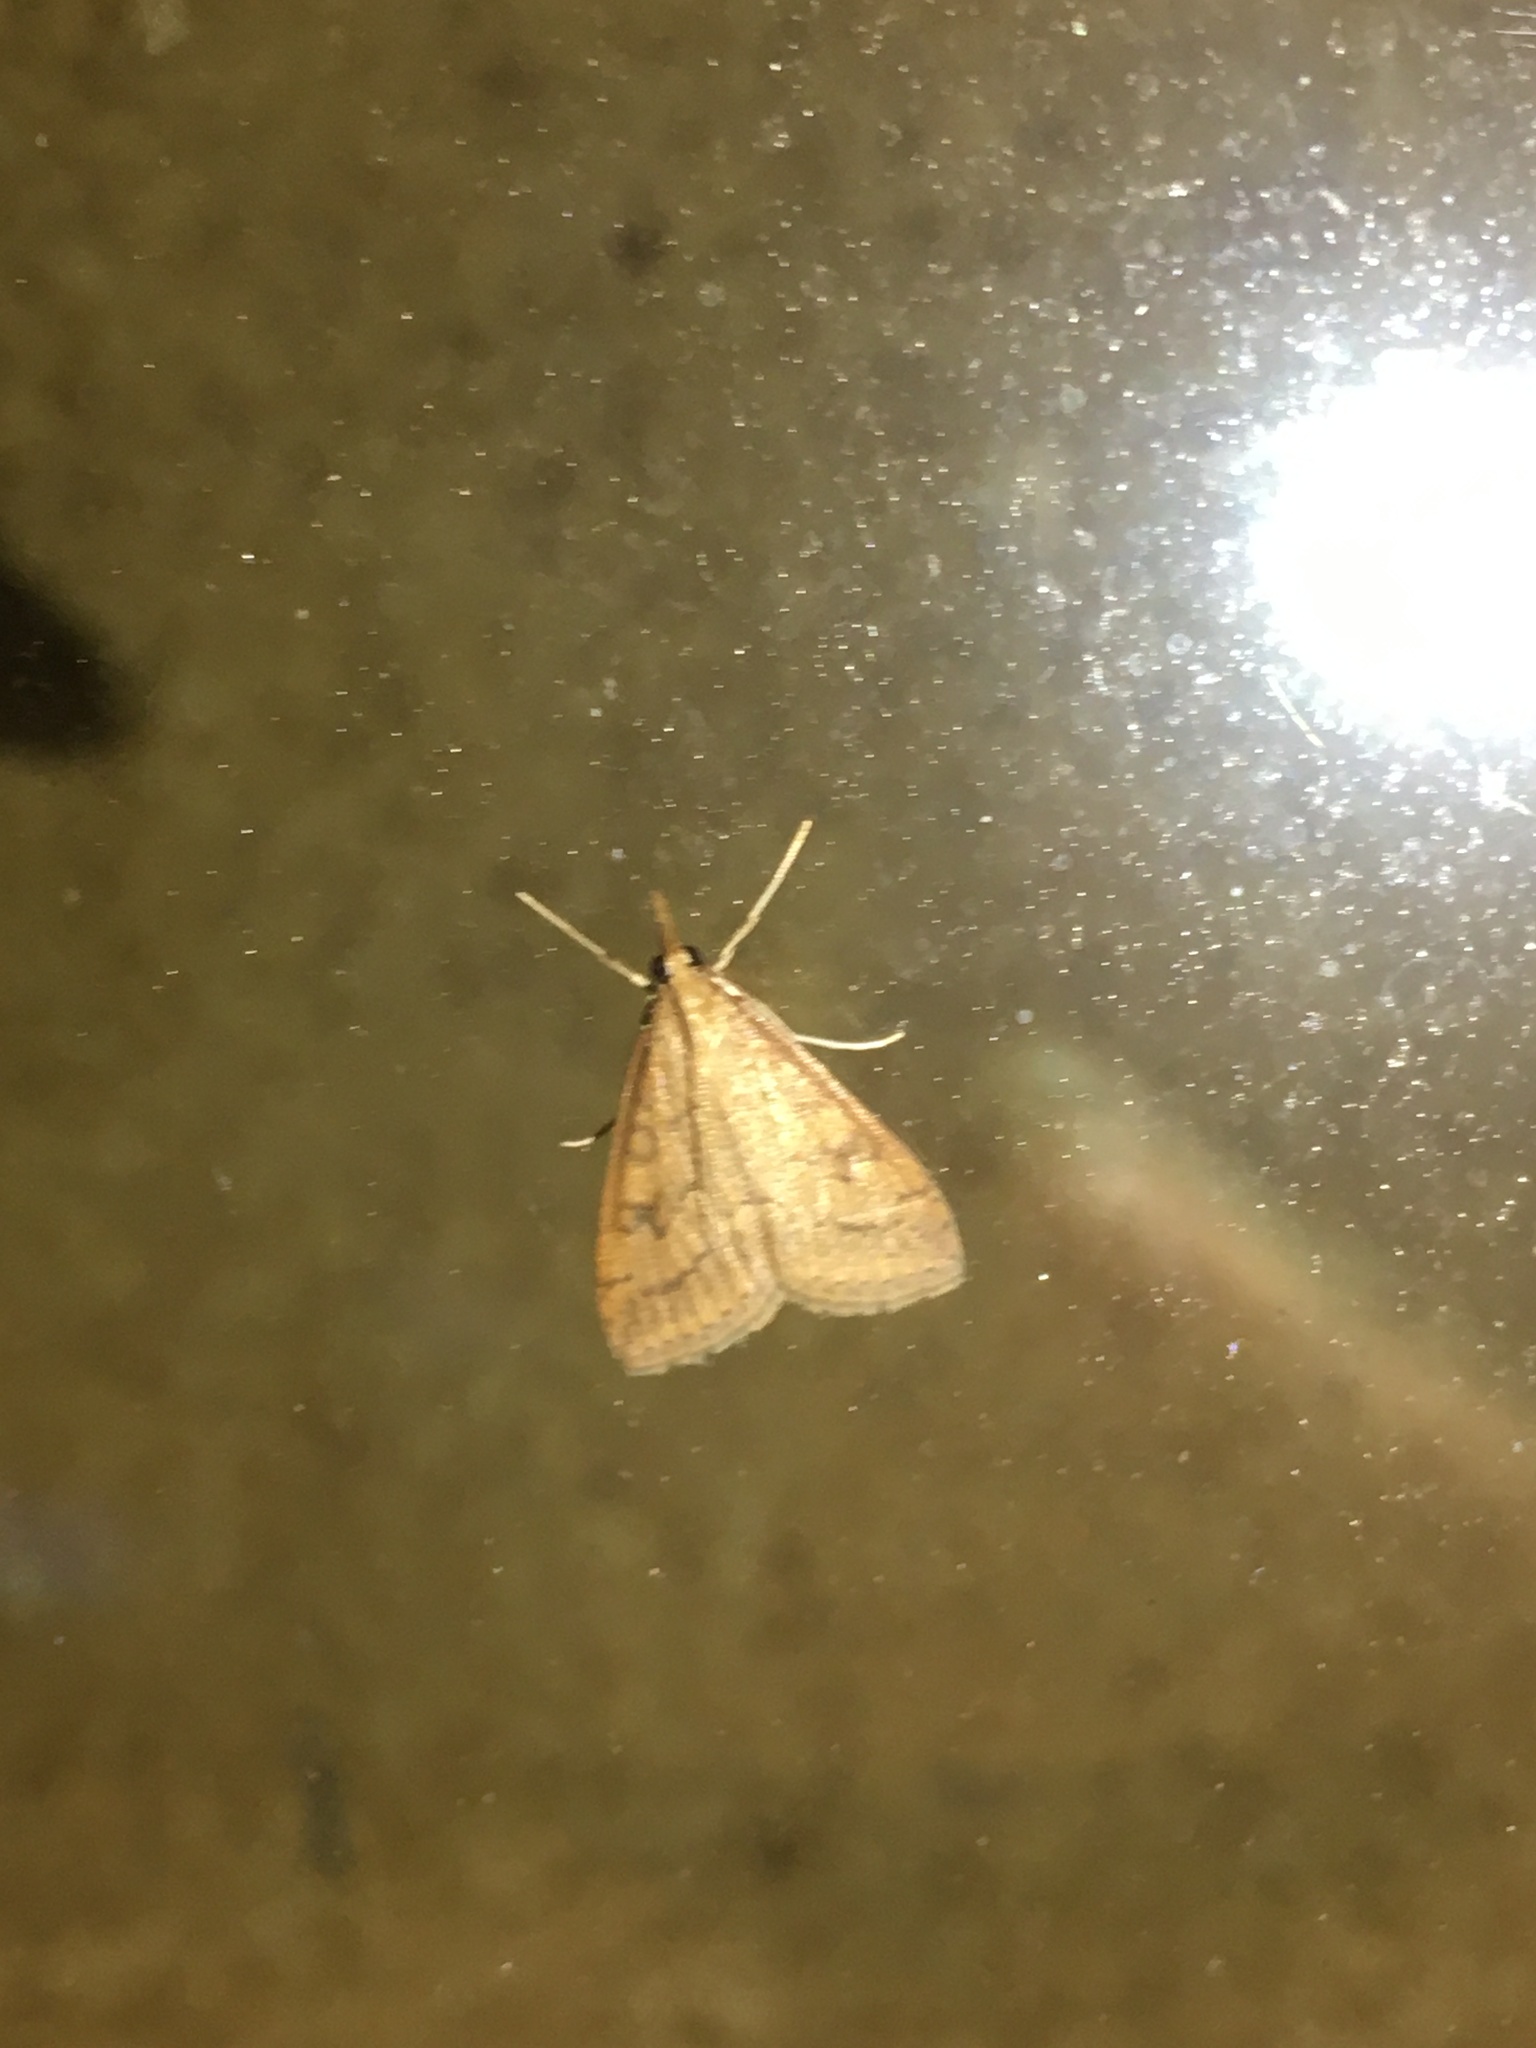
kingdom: Animalia
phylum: Arthropoda
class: Insecta
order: Lepidoptera
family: Crambidae
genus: Udea
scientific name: Udea rubigalis
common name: Celery leaftier moth
